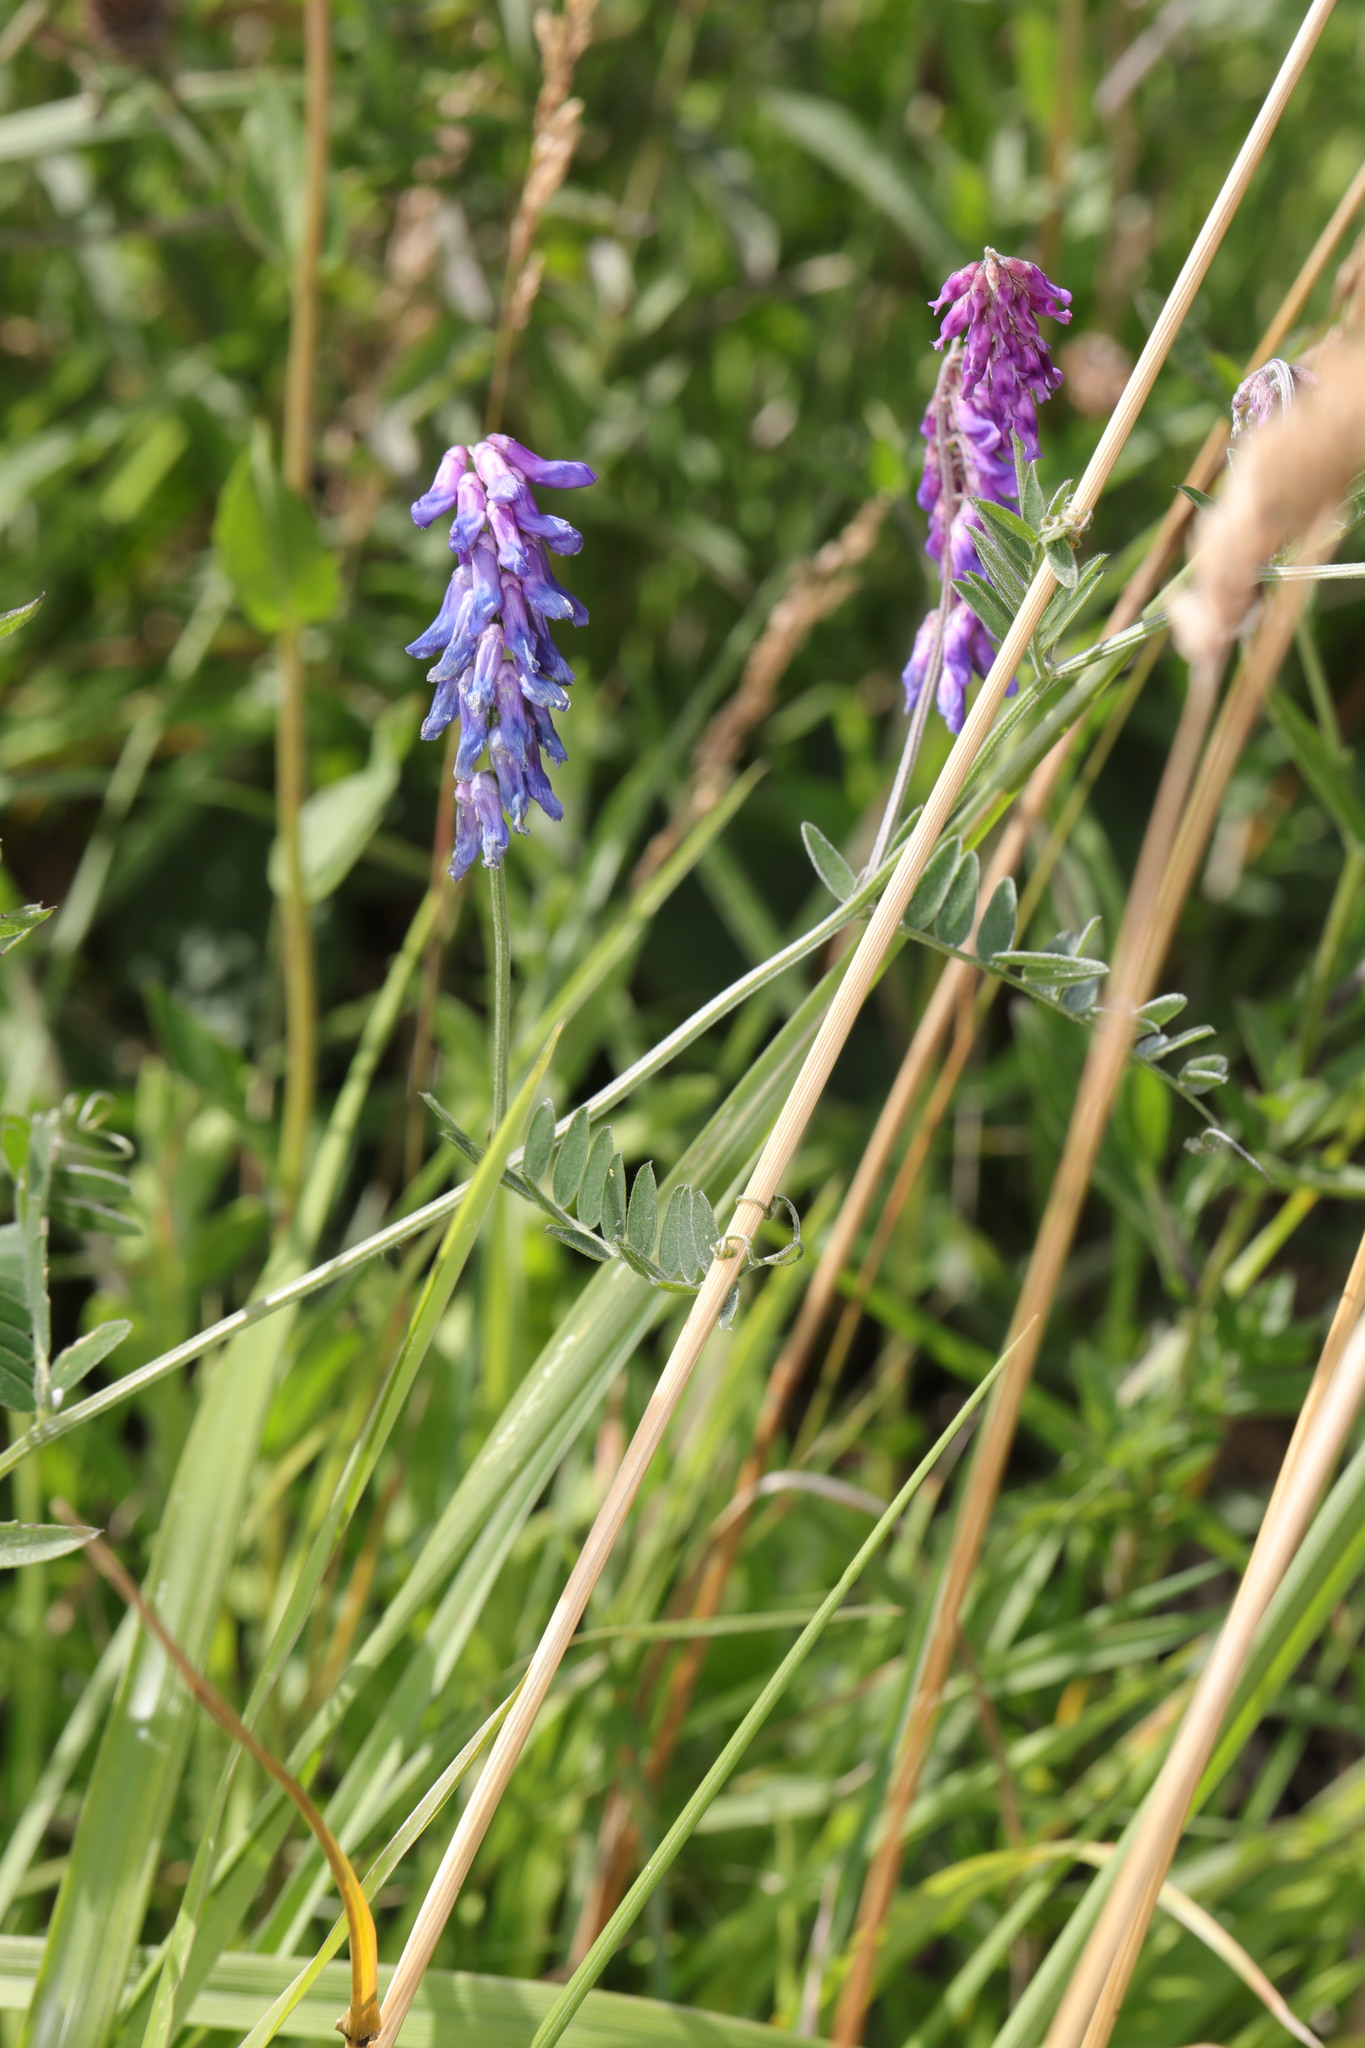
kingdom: Plantae
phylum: Tracheophyta
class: Magnoliopsida
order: Fabales
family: Fabaceae
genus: Vicia
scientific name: Vicia cracca
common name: Bird vetch
